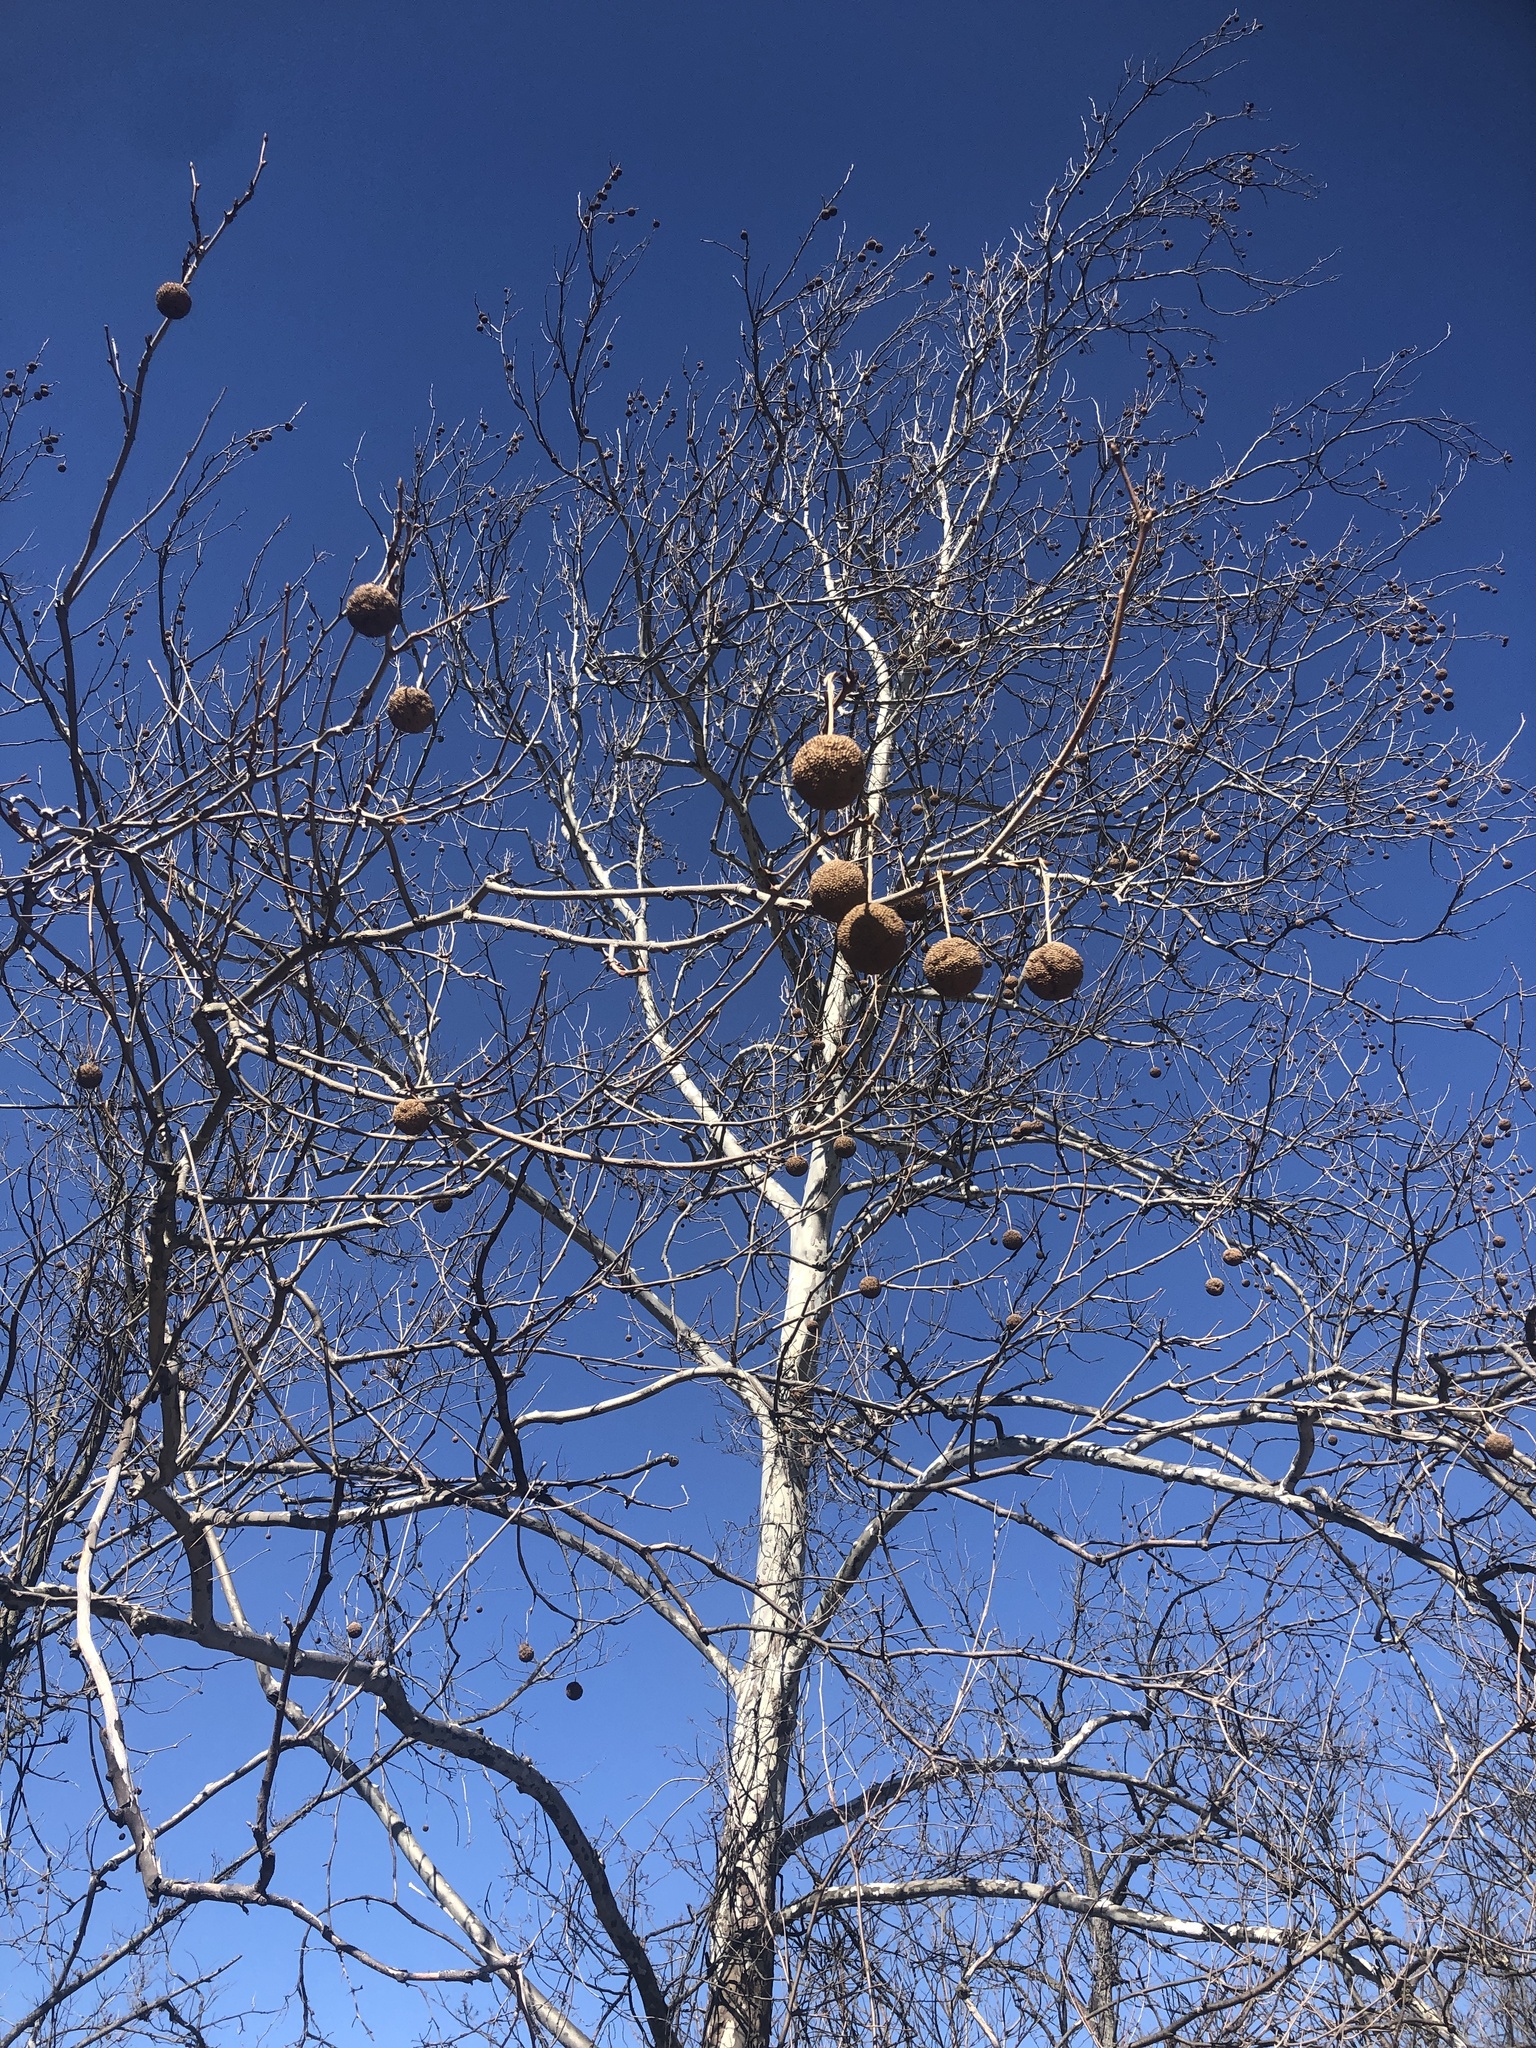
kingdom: Plantae
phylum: Tracheophyta
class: Magnoliopsida
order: Proteales
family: Platanaceae
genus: Platanus
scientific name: Platanus occidentalis
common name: American sycamore
